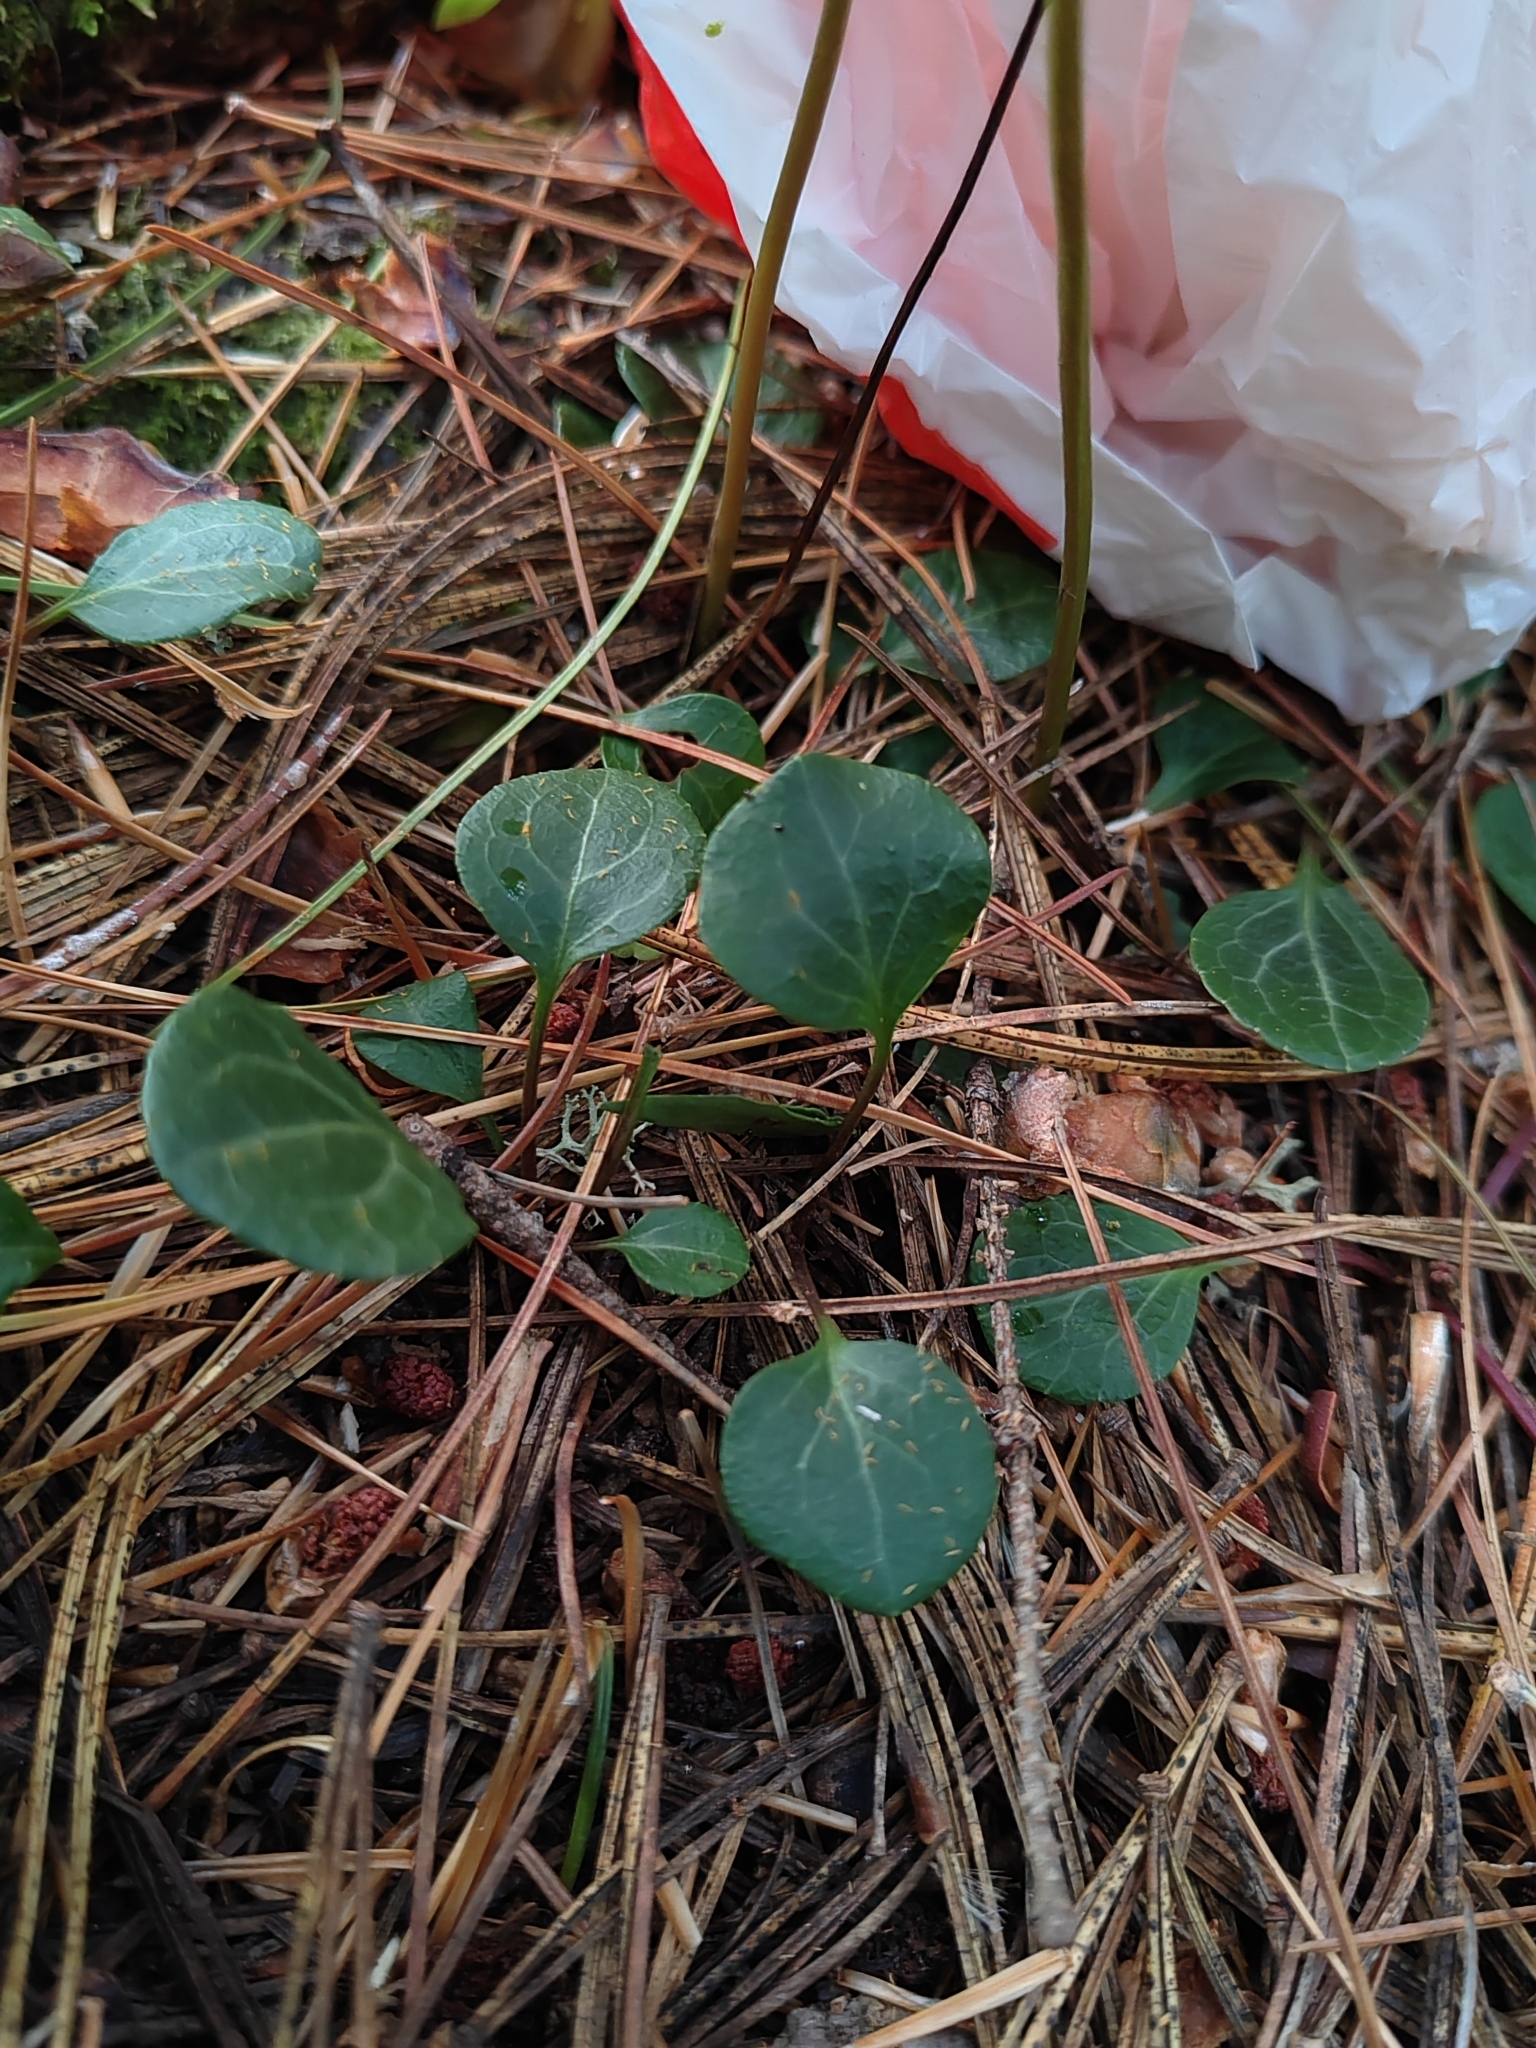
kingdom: Plantae
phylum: Tracheophyta
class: Magnoliopsida
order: Ericales
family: Ericaceae
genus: Pyrola
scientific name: Pyrola chlorantha
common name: Green wintergreen
